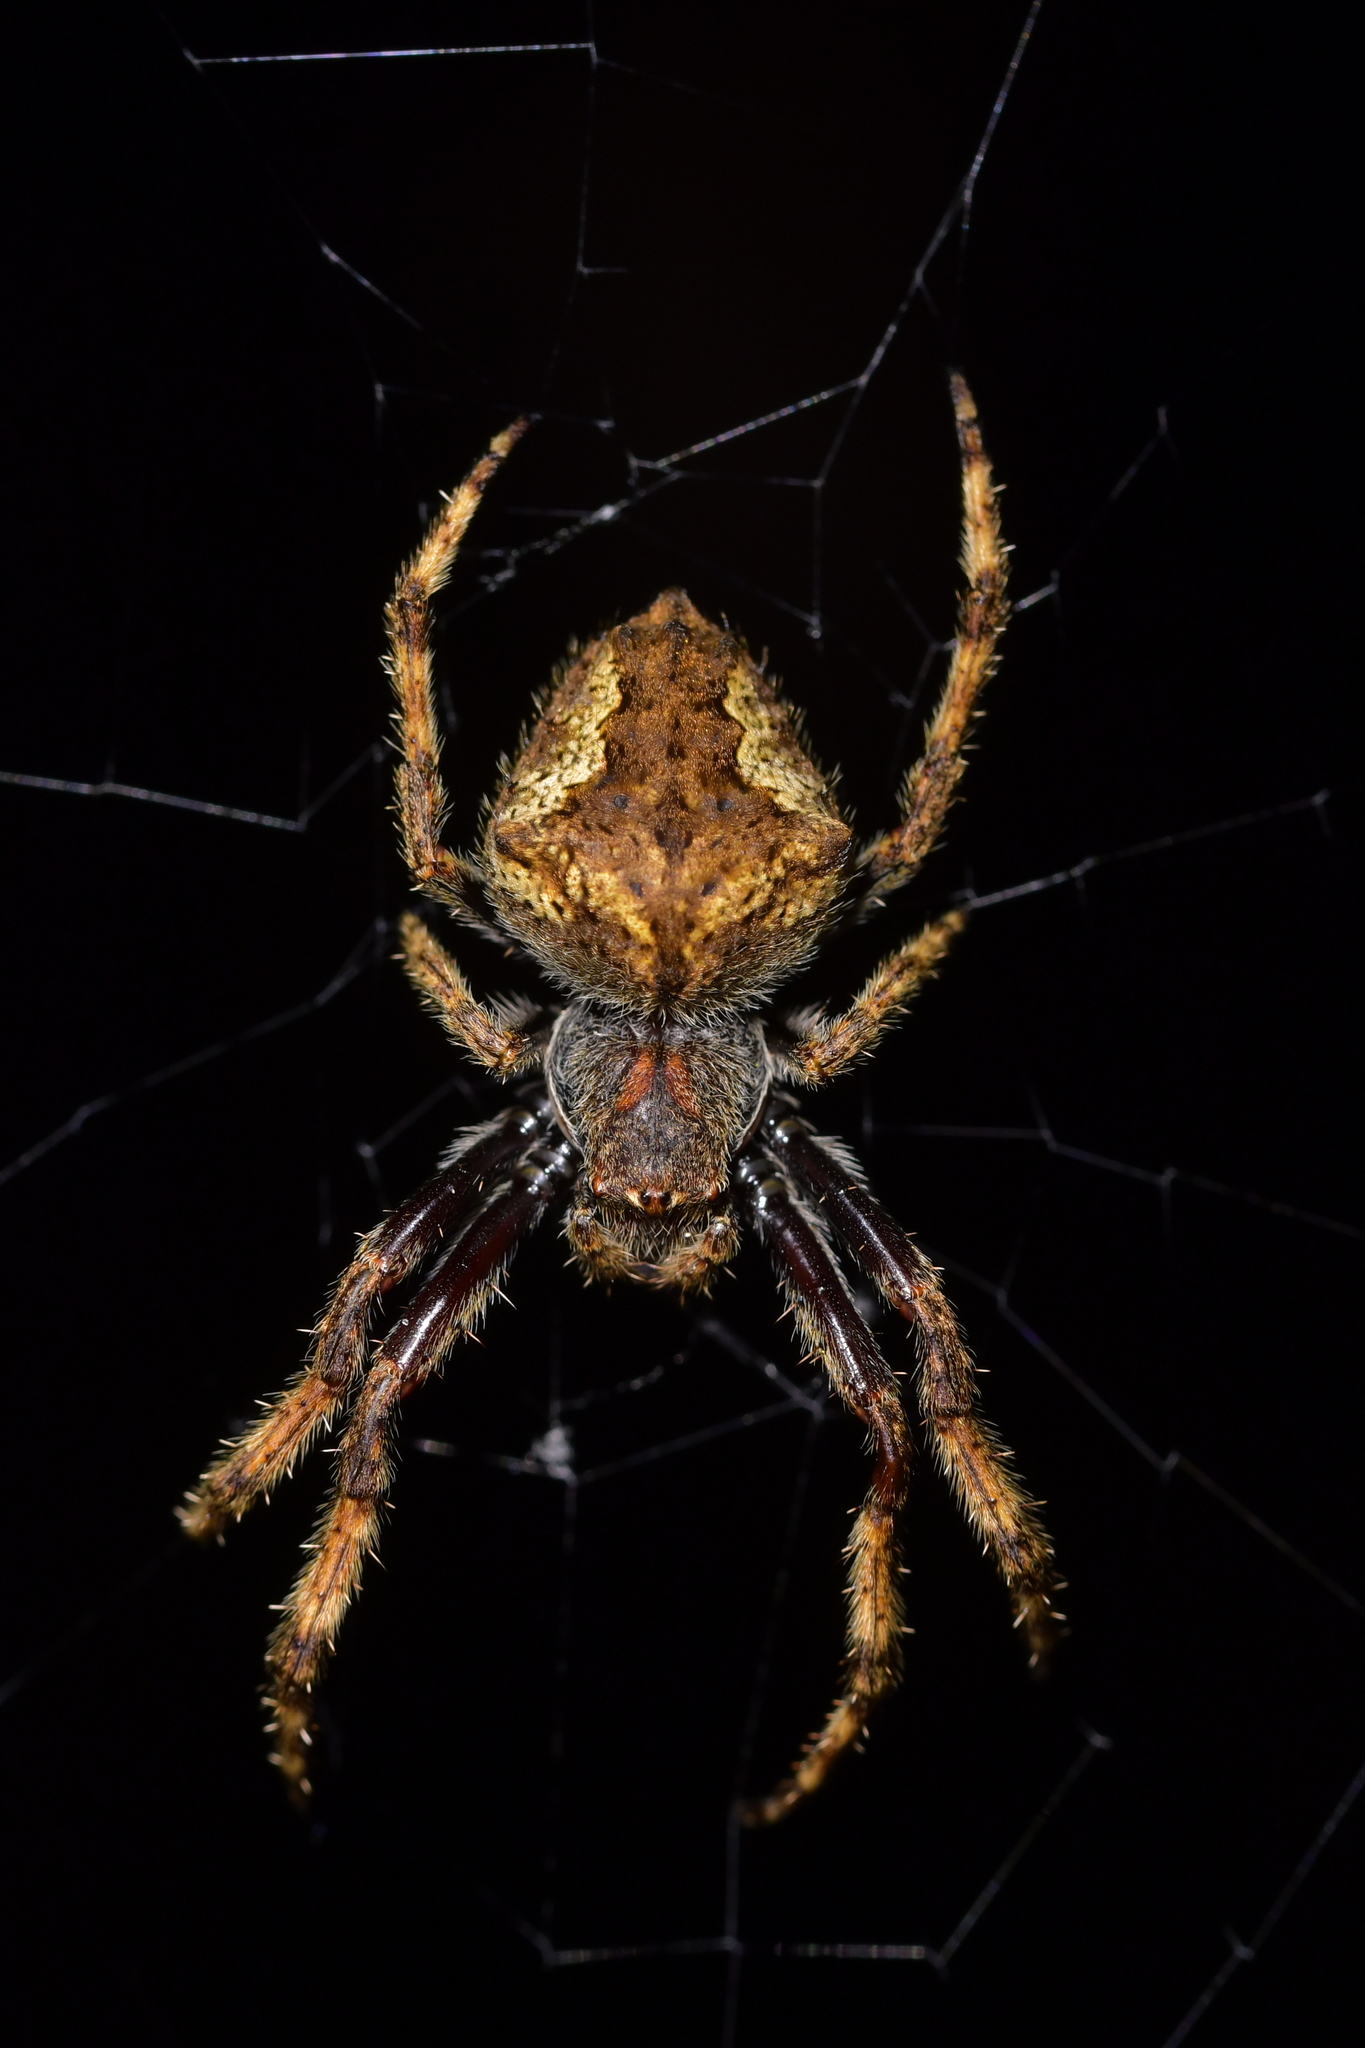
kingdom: Animalia
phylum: Arthropoda
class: Arachnida
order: Araneae
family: Araneidae
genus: Eriophora
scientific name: Eriophora pustulosa
